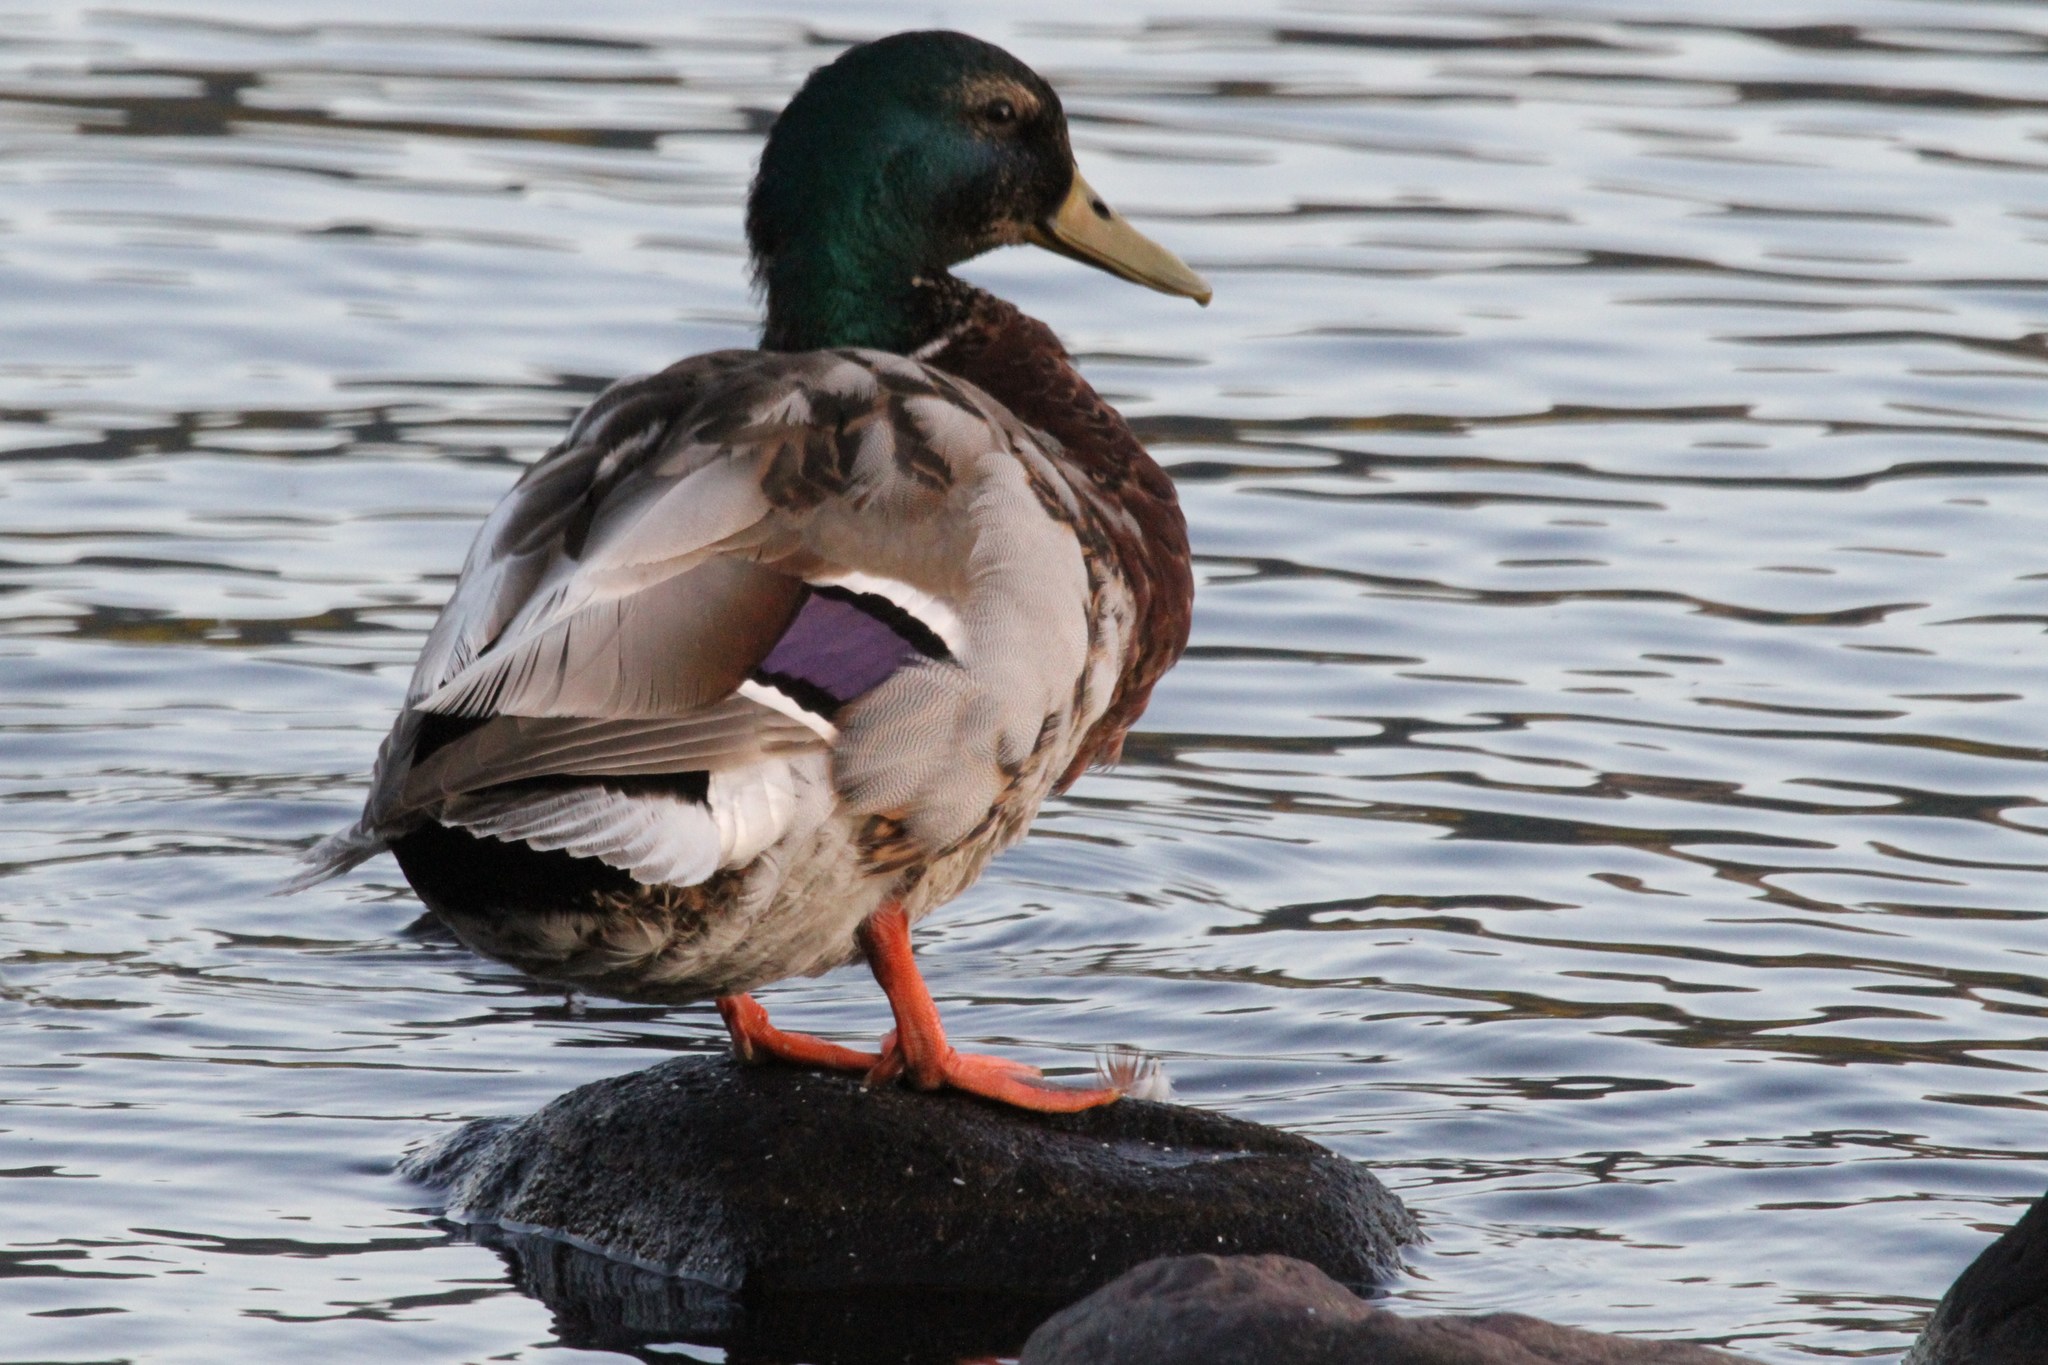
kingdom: Animalia
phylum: Chordata
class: Aves
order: Anseriformes
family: Anatidae
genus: Anas
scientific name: Anas platyrhynchos
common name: Mallard
